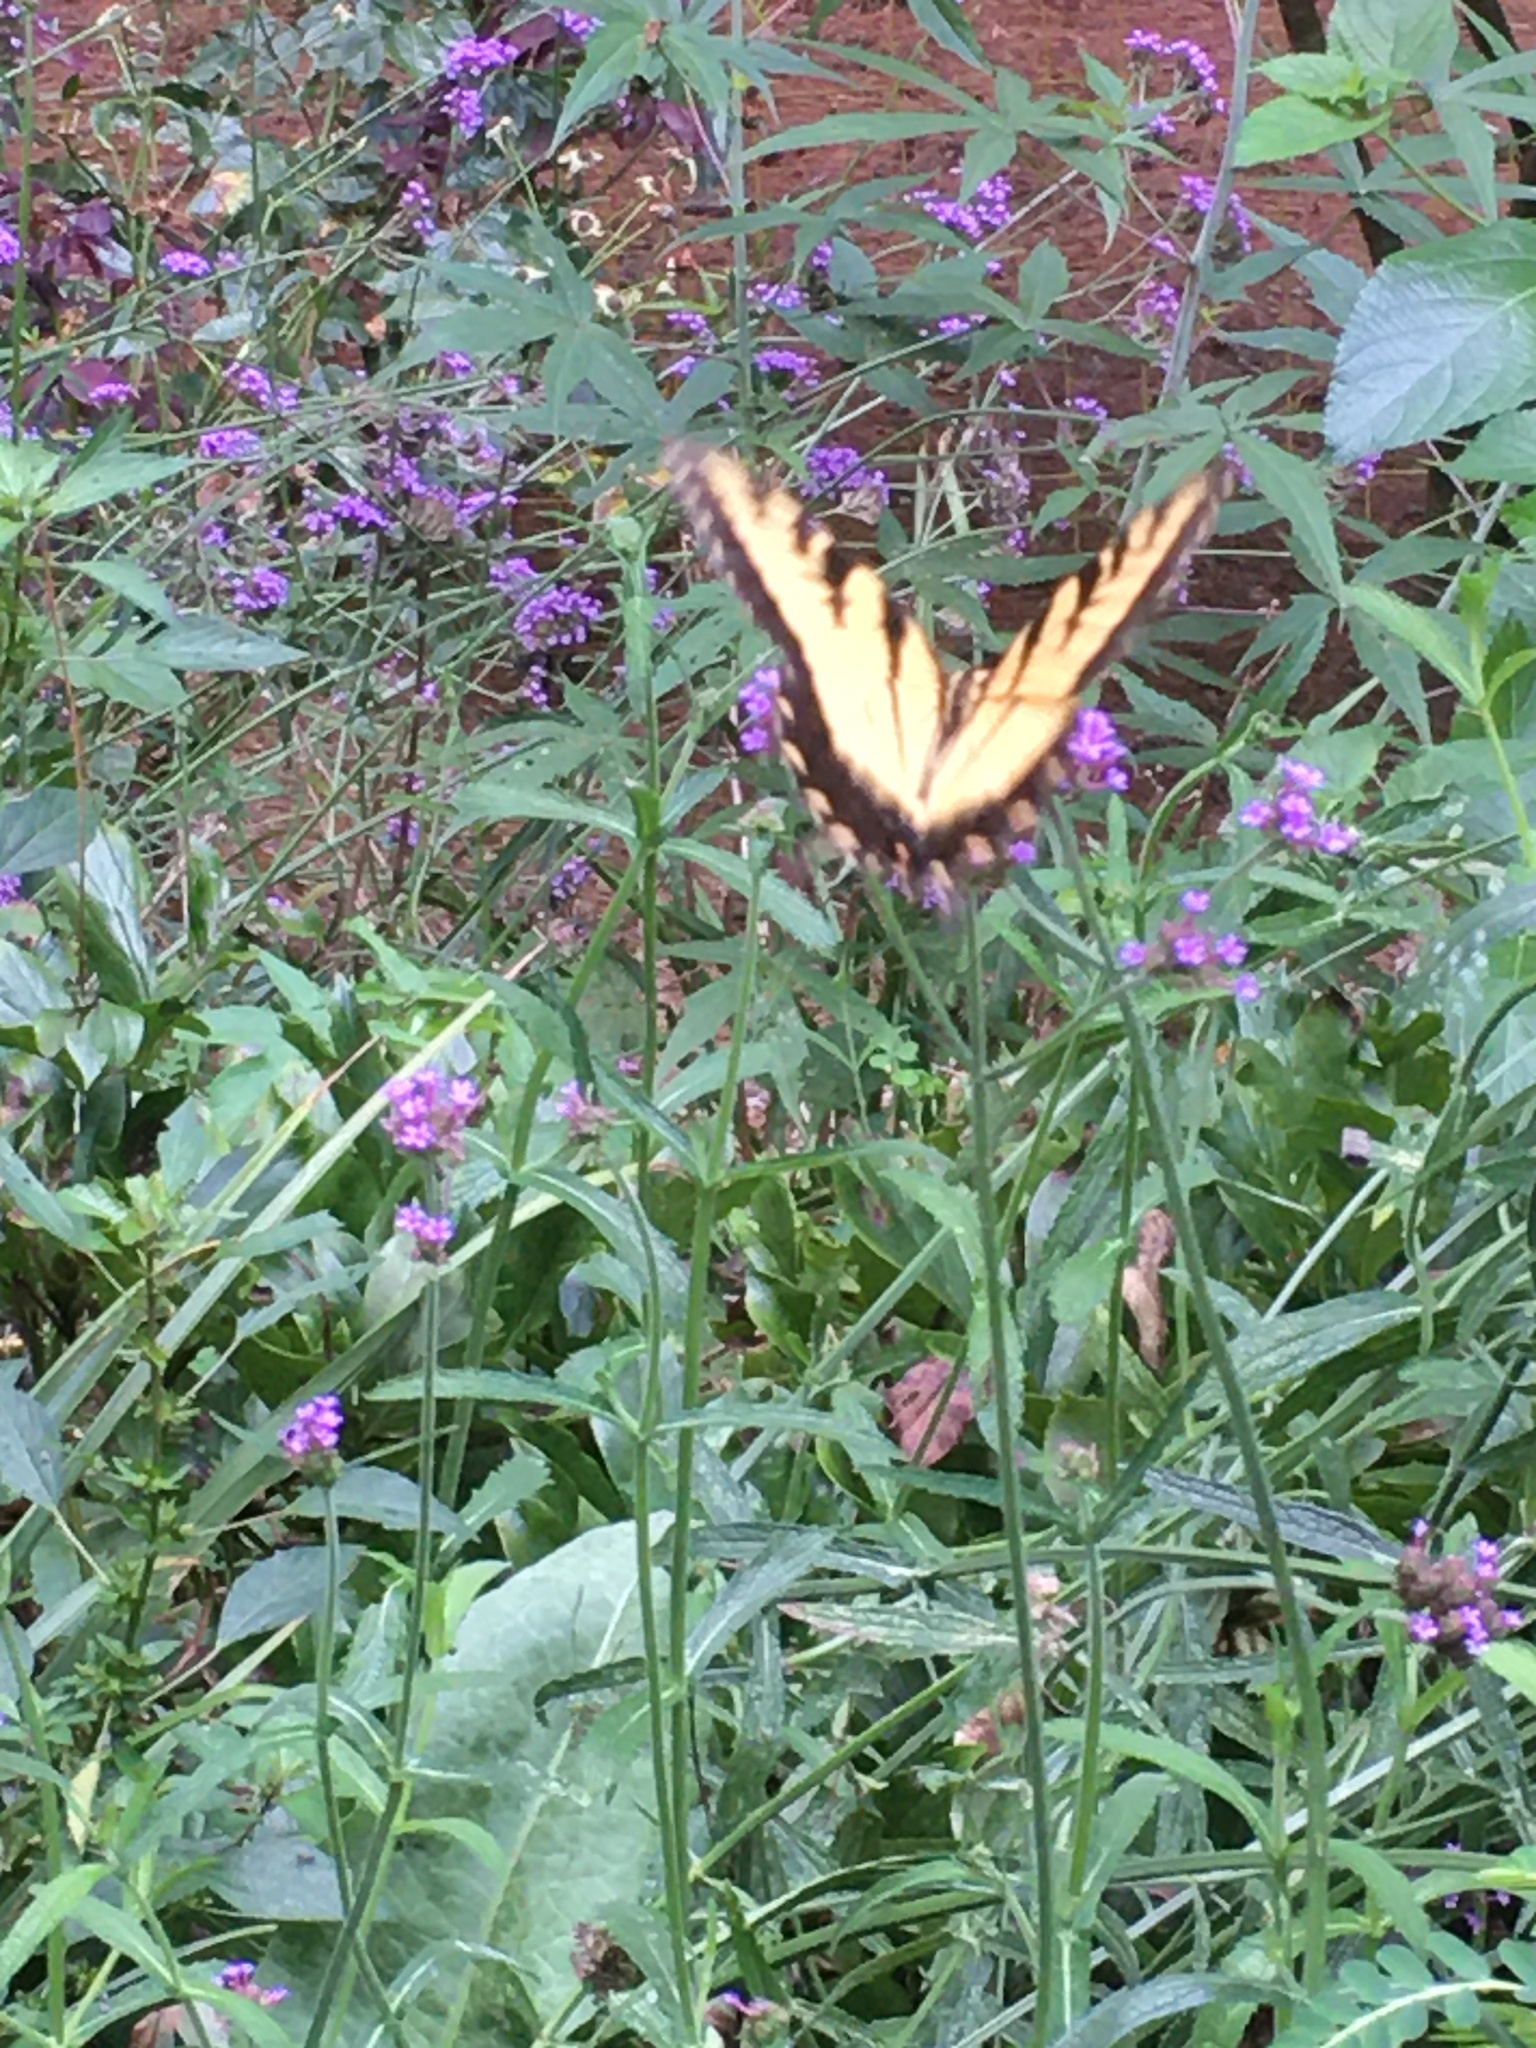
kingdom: Animalia
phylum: Arthropoda
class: Insecta
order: Lepidoptera
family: Papilionidae
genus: Papilio
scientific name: Papilio glaucus
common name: Tiger swallowtail
